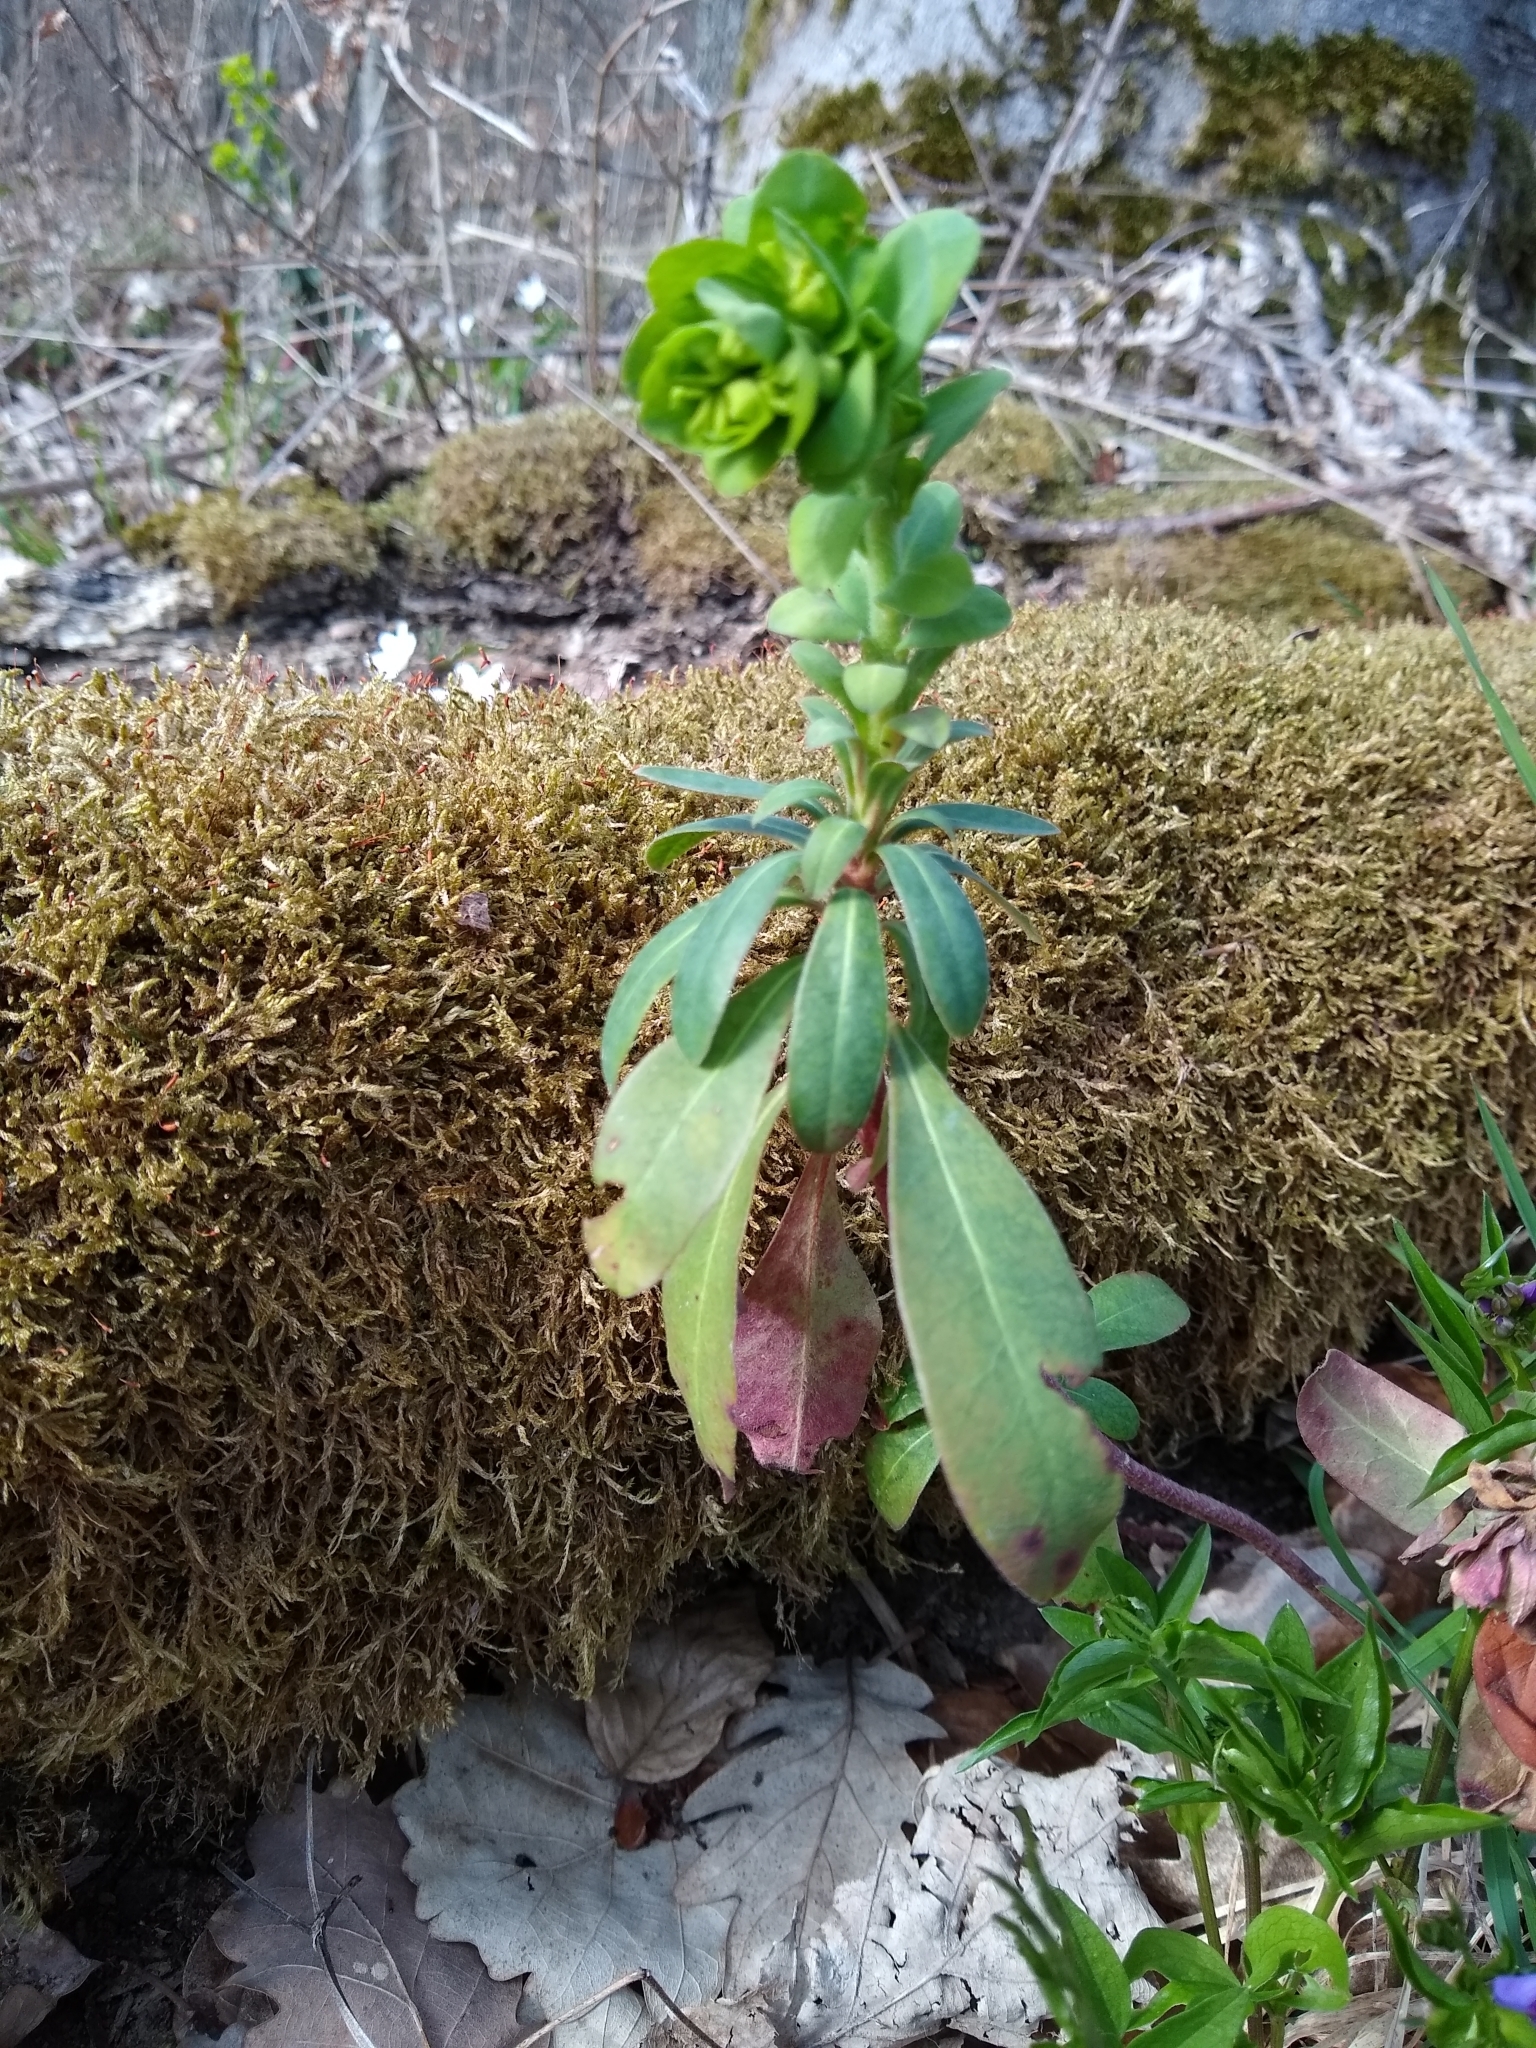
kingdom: Plantae
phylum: Tracheophyta
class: Magnoliopsida
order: Malpighiales
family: Euphorbiaceae
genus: Euphorbia
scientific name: Euphorbia amygdaloides
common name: Wood spurge
